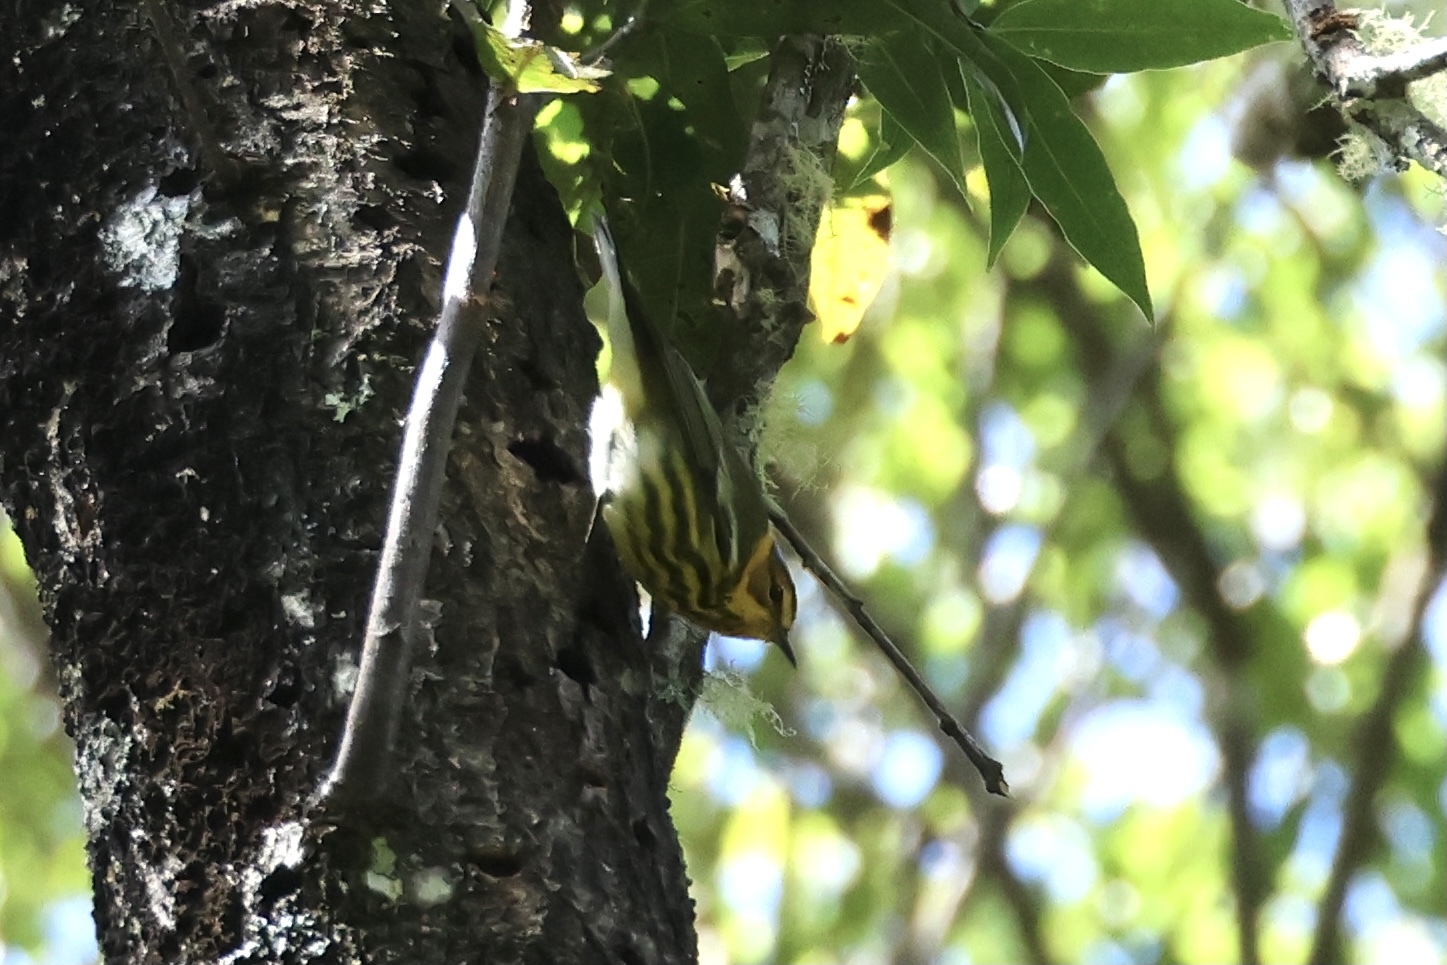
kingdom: Animalia
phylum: Chordata
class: Aves
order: Passeriformes
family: Parulidae
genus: Setophaga
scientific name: Setophaga tigrina
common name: Cape may warbler
